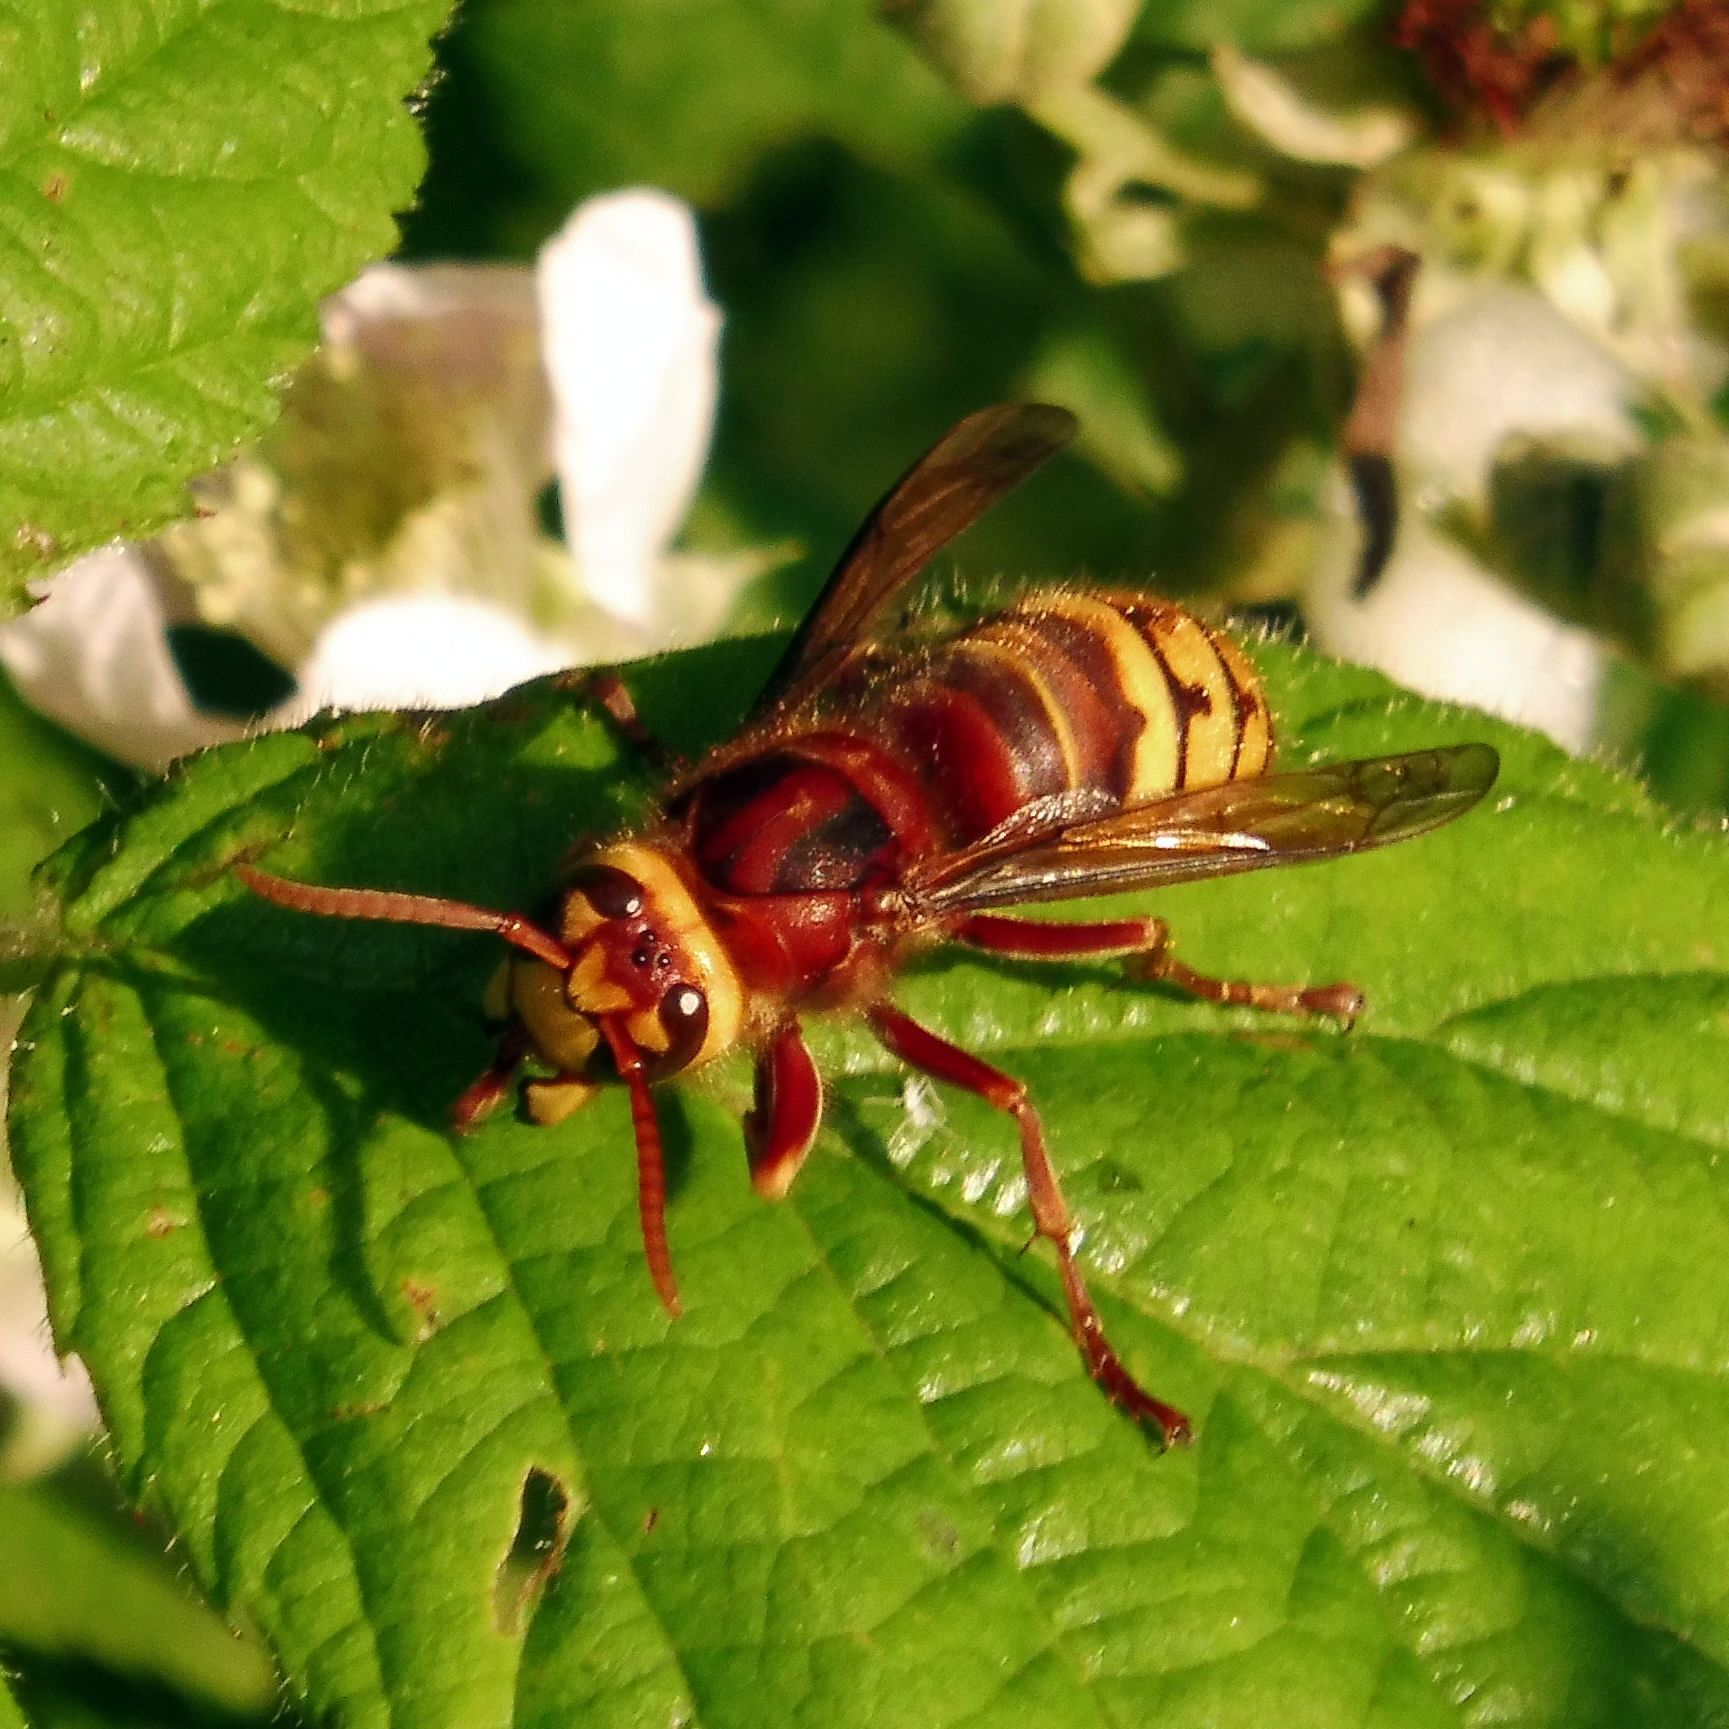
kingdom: Animalia
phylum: Arthropoda
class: Insecta
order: Hymenoptera
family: Vespidae
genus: Vespa
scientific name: Vespa crabro
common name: Hornet
